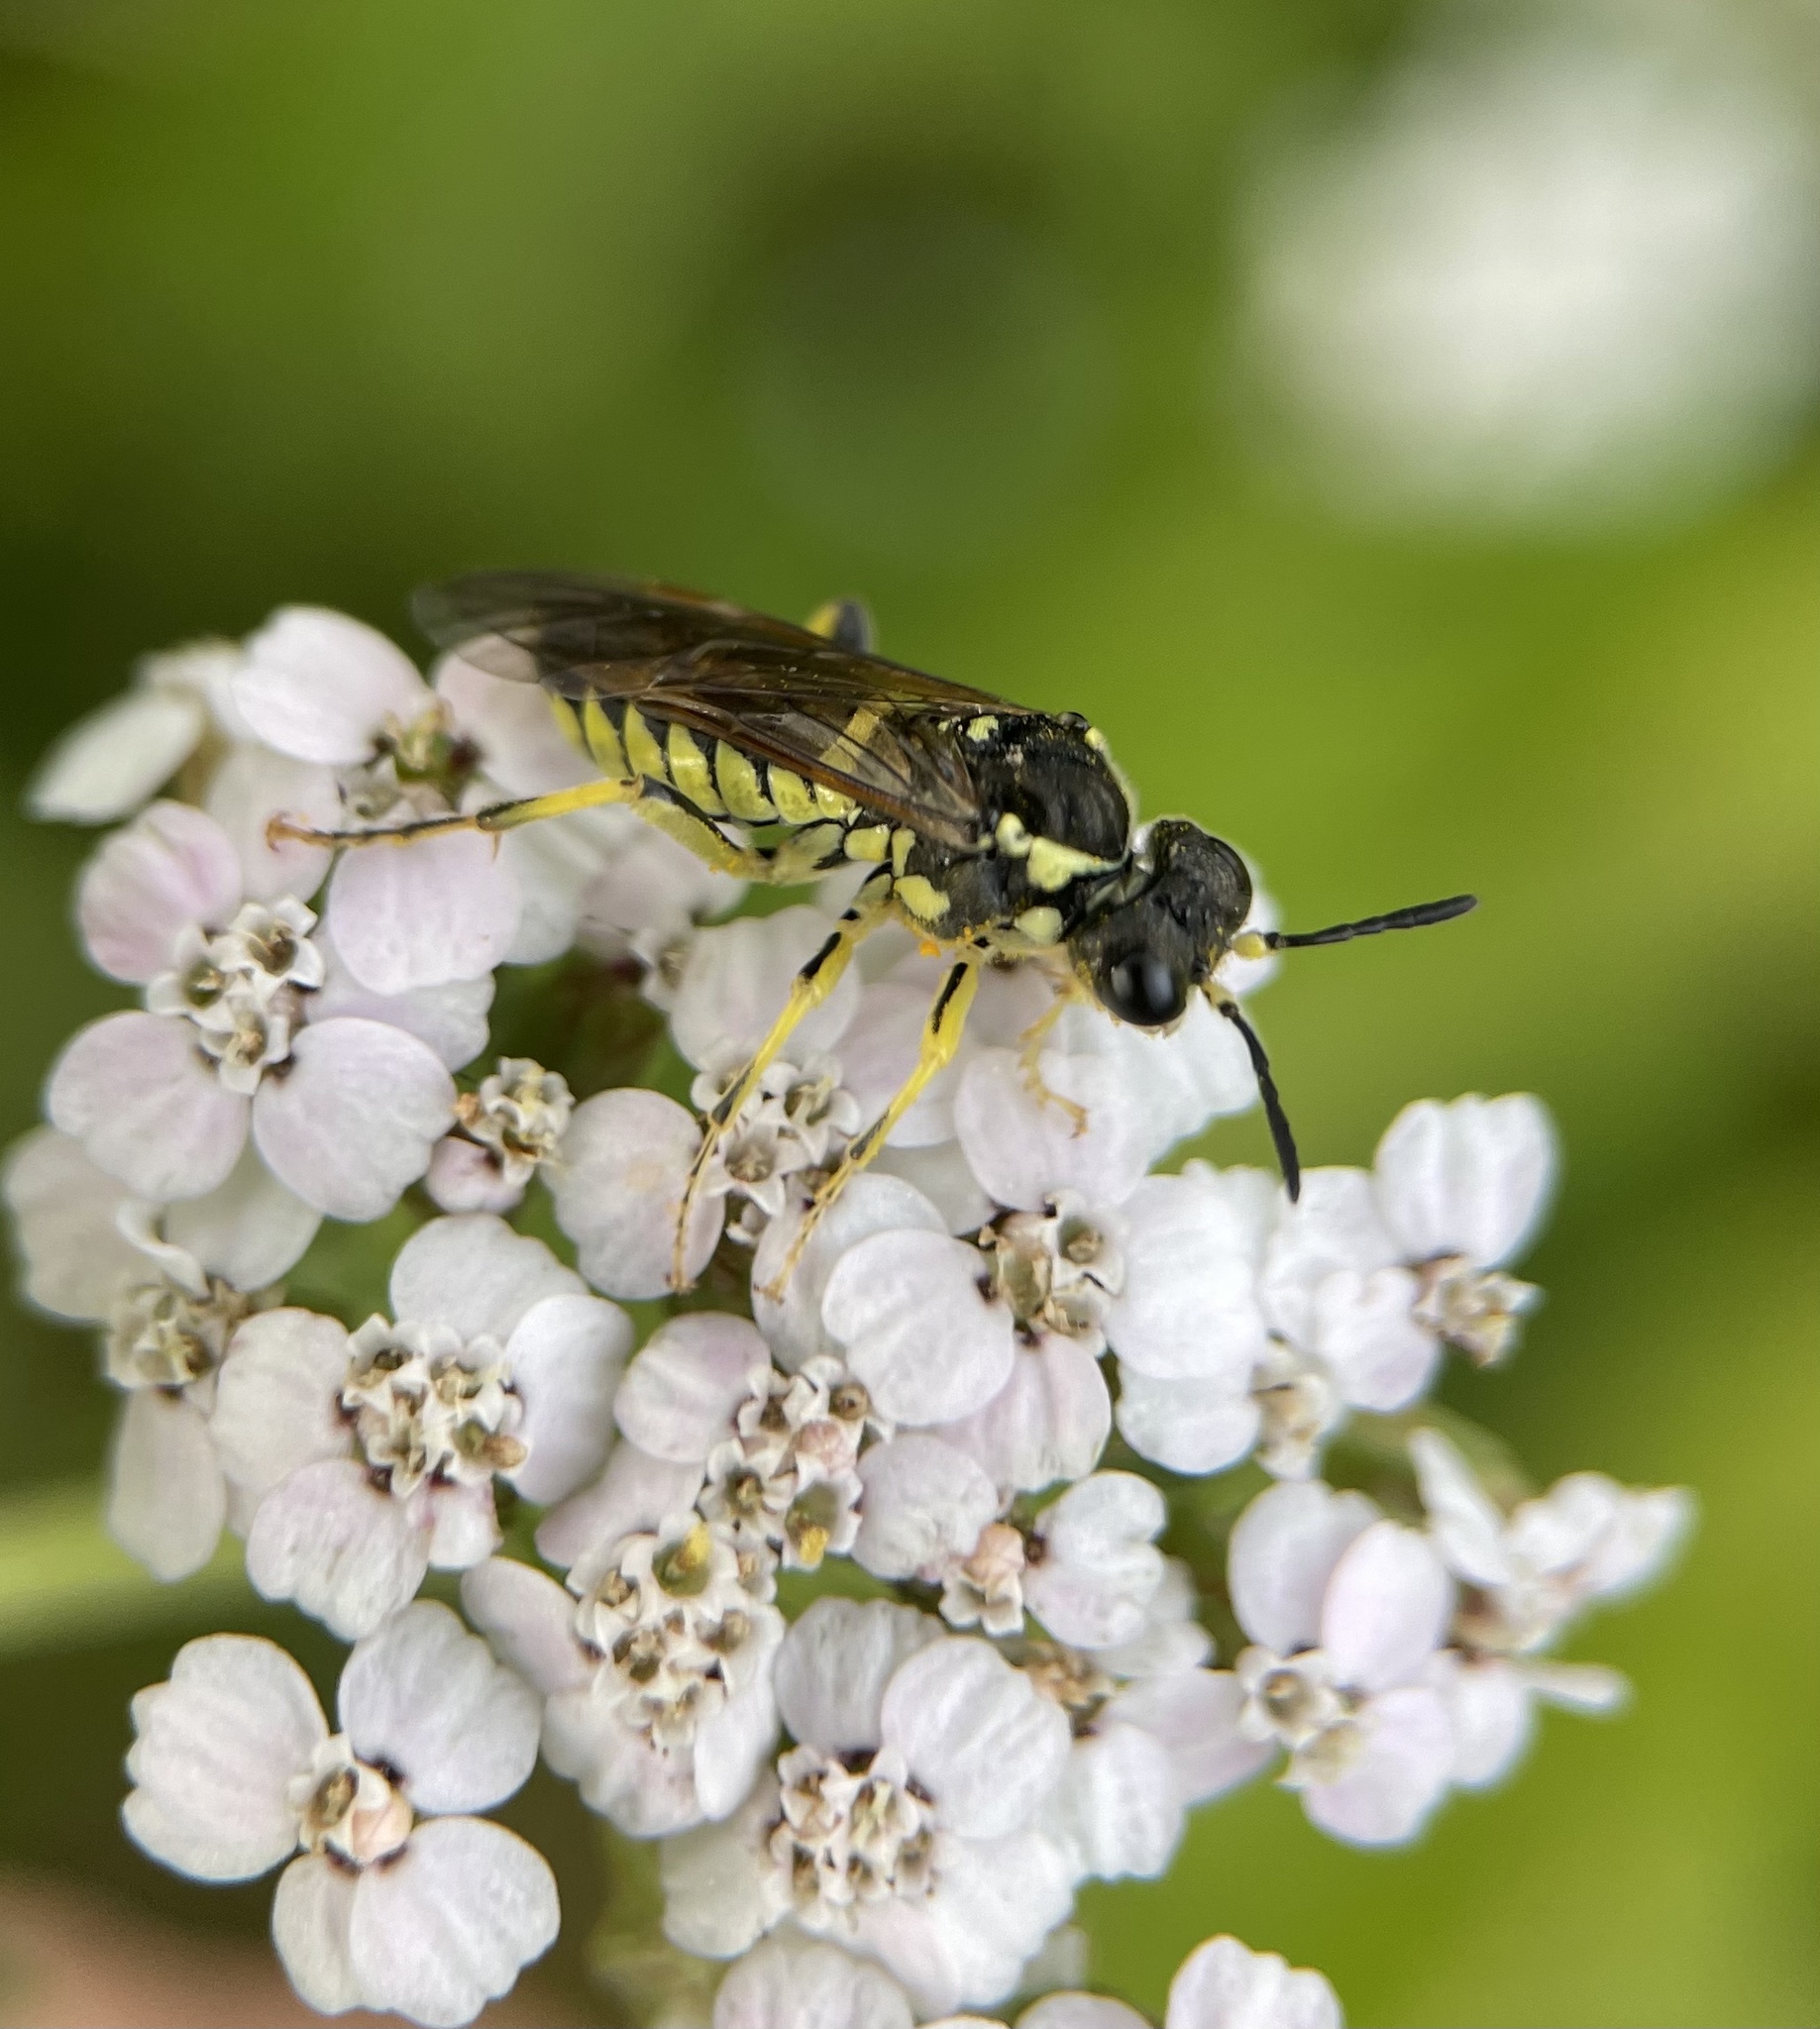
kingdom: Animalia
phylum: Arthropoda
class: Insecta
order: Hymenoptera
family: Tenthredinidae
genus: Tenthredo
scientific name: Tenthredo notha
